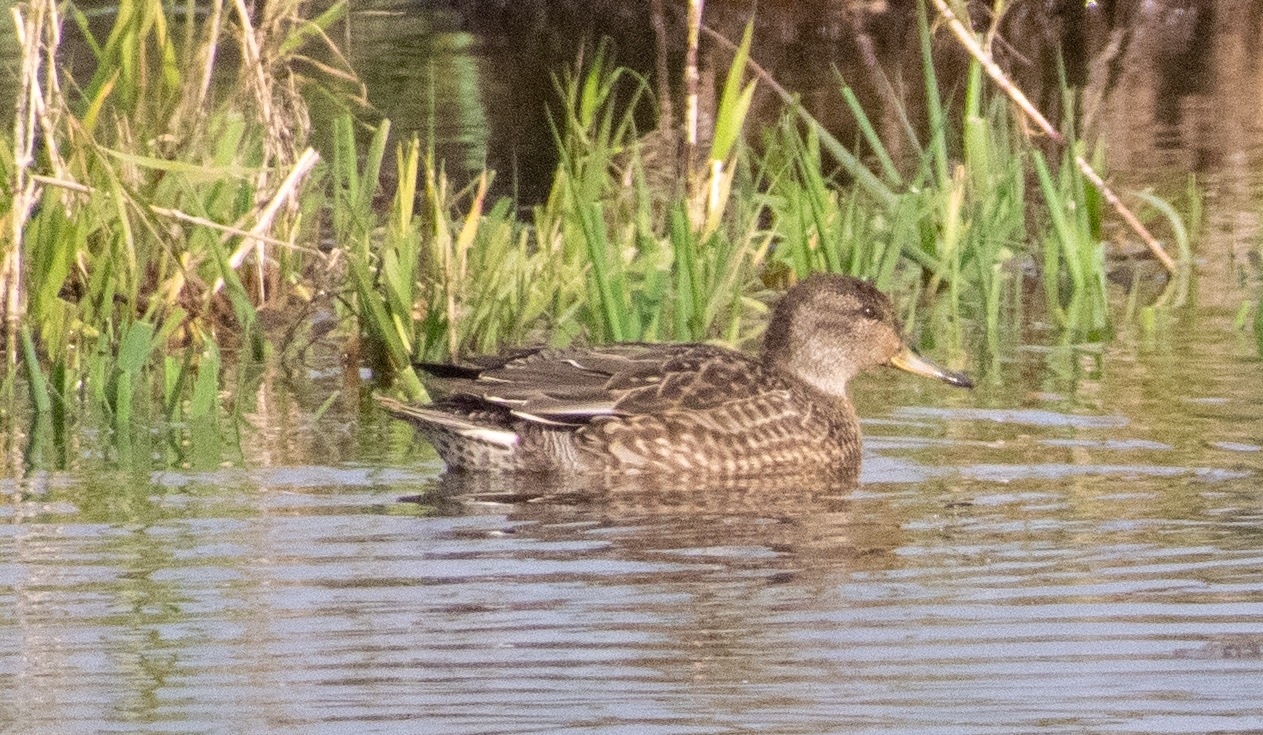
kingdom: Animalia
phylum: Chordata
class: Aves
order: Anseriformes
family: Anatidae
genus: Mareca
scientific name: Mareca strepera
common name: Gadwall
